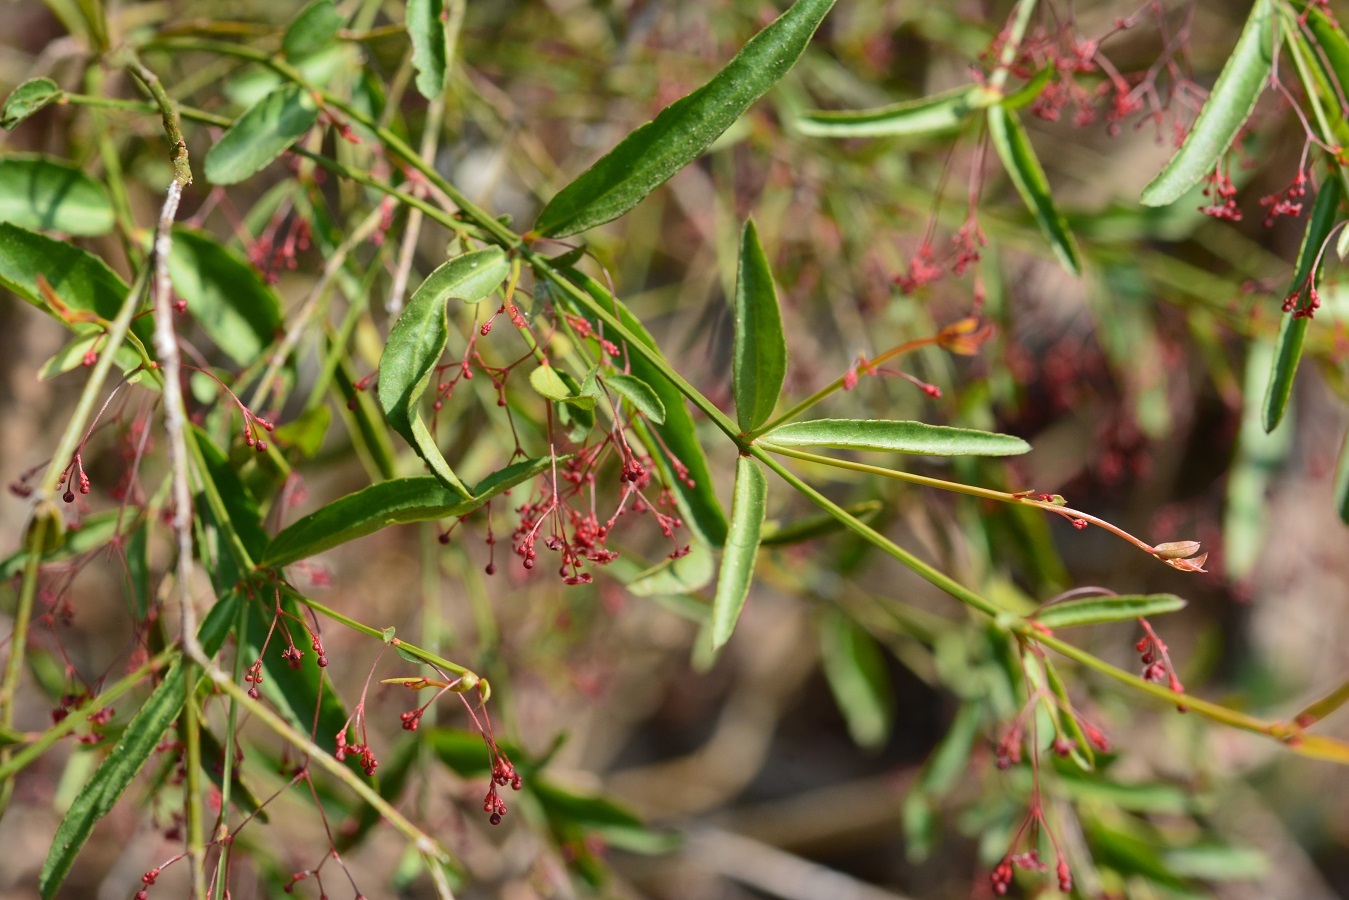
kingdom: Plantae
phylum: Tracheophyta
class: Magnoliopsida
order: Celastrales
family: Celastraceae
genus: Crossopetalum
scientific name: Crossopetalum uragoga
